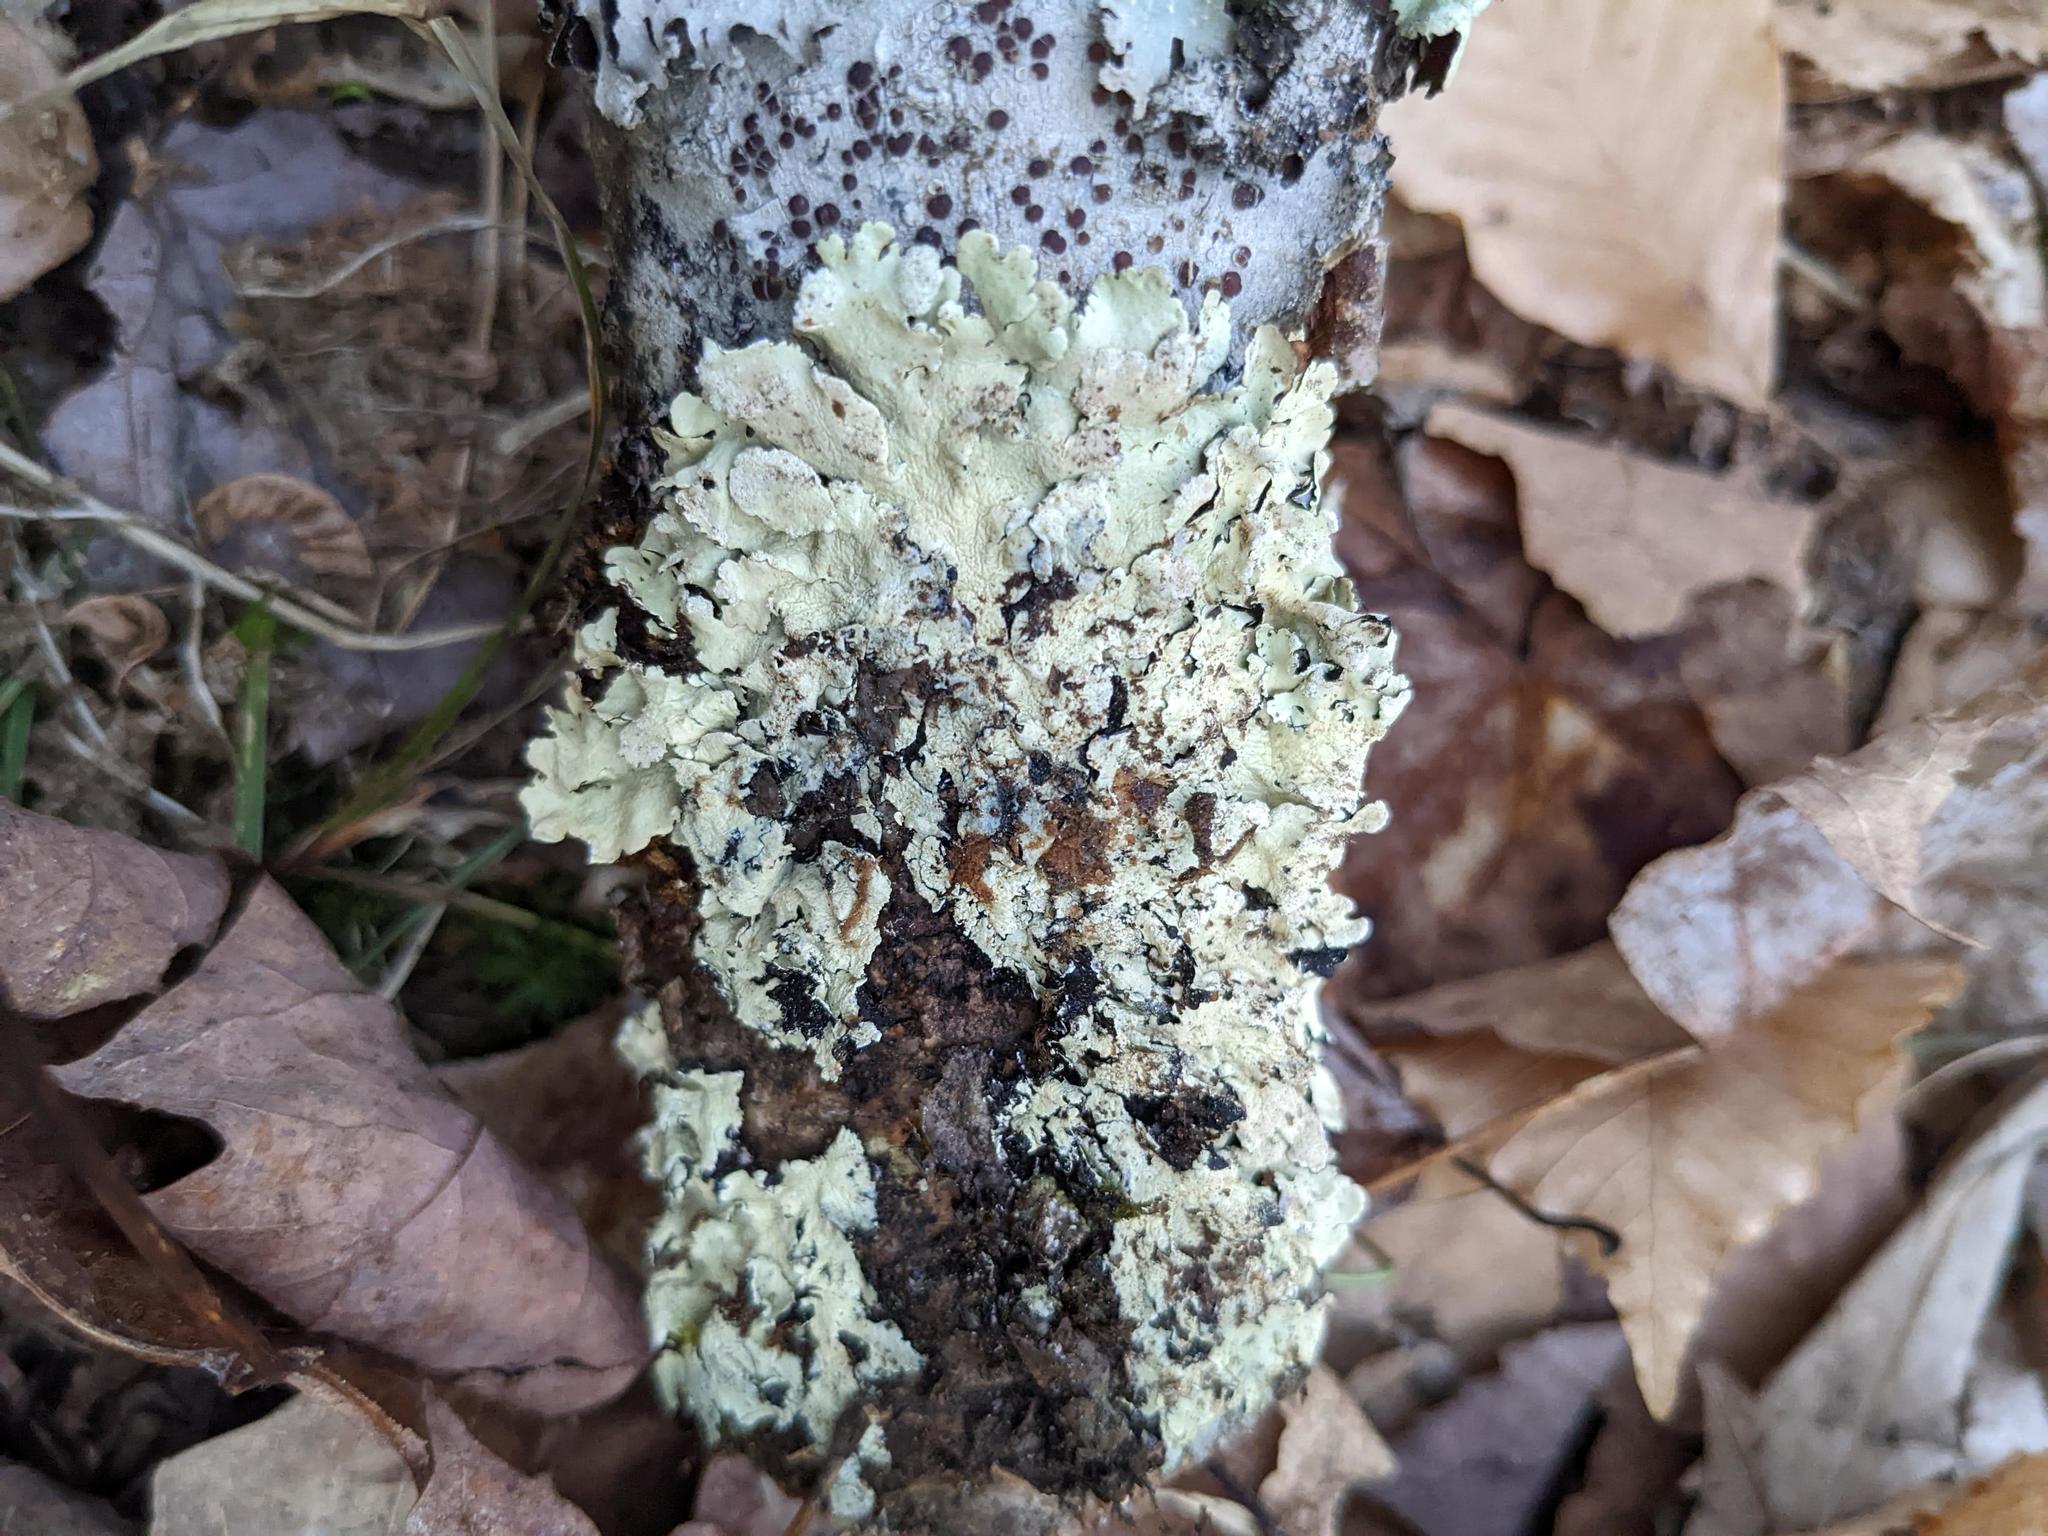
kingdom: Fungi
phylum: Ascomycota
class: Lecanoromycetes
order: Lecanorales
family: Parmeliaceae
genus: Flavoparmelia
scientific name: Flavoparmelia caperata
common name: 40-mile per hour lichen
